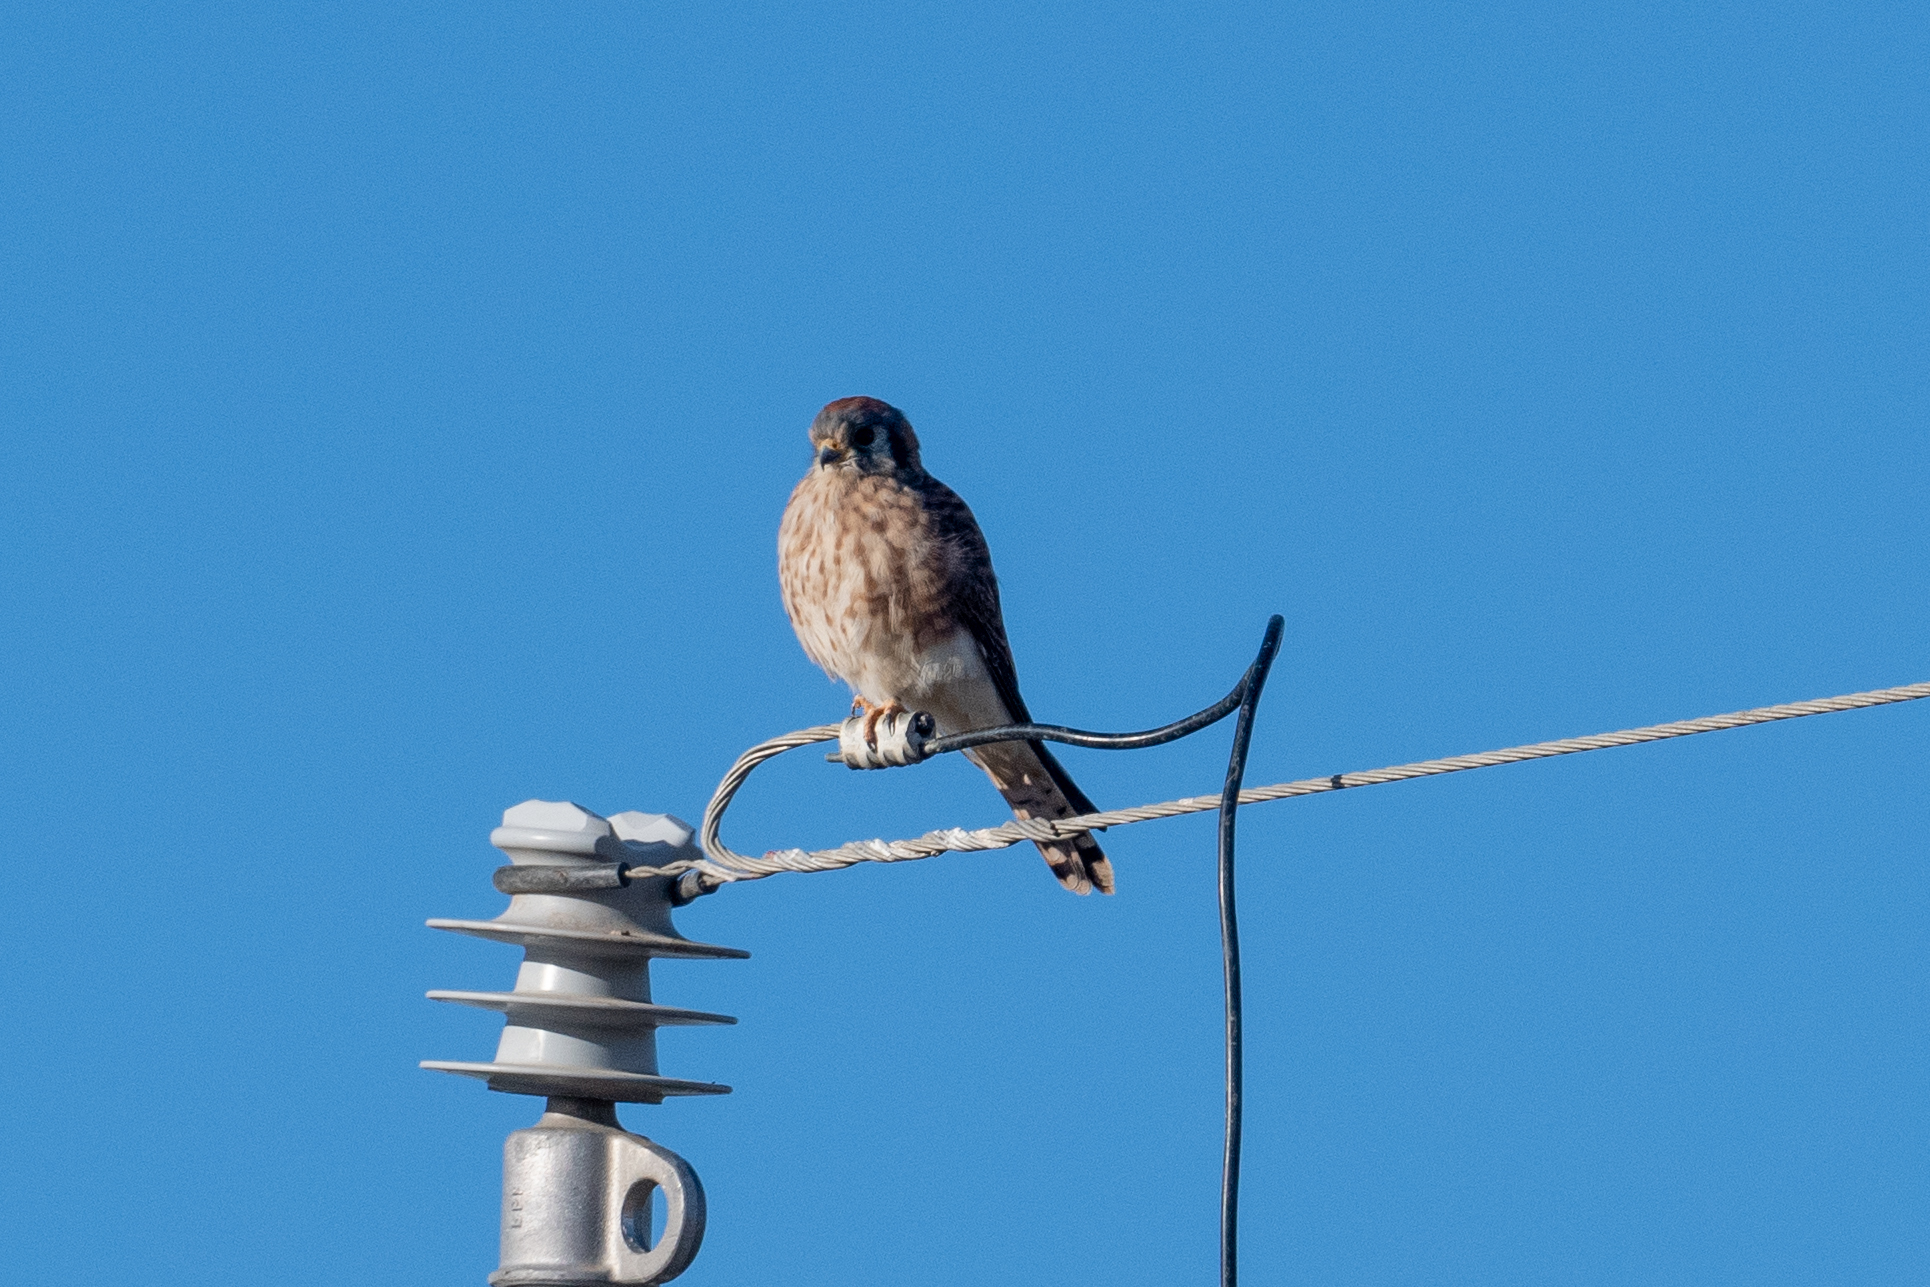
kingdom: Animalia
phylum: Chordata
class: Aves
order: Falconiformes
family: Falconidae
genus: Falco
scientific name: Falco sparverius
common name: American kestrel
